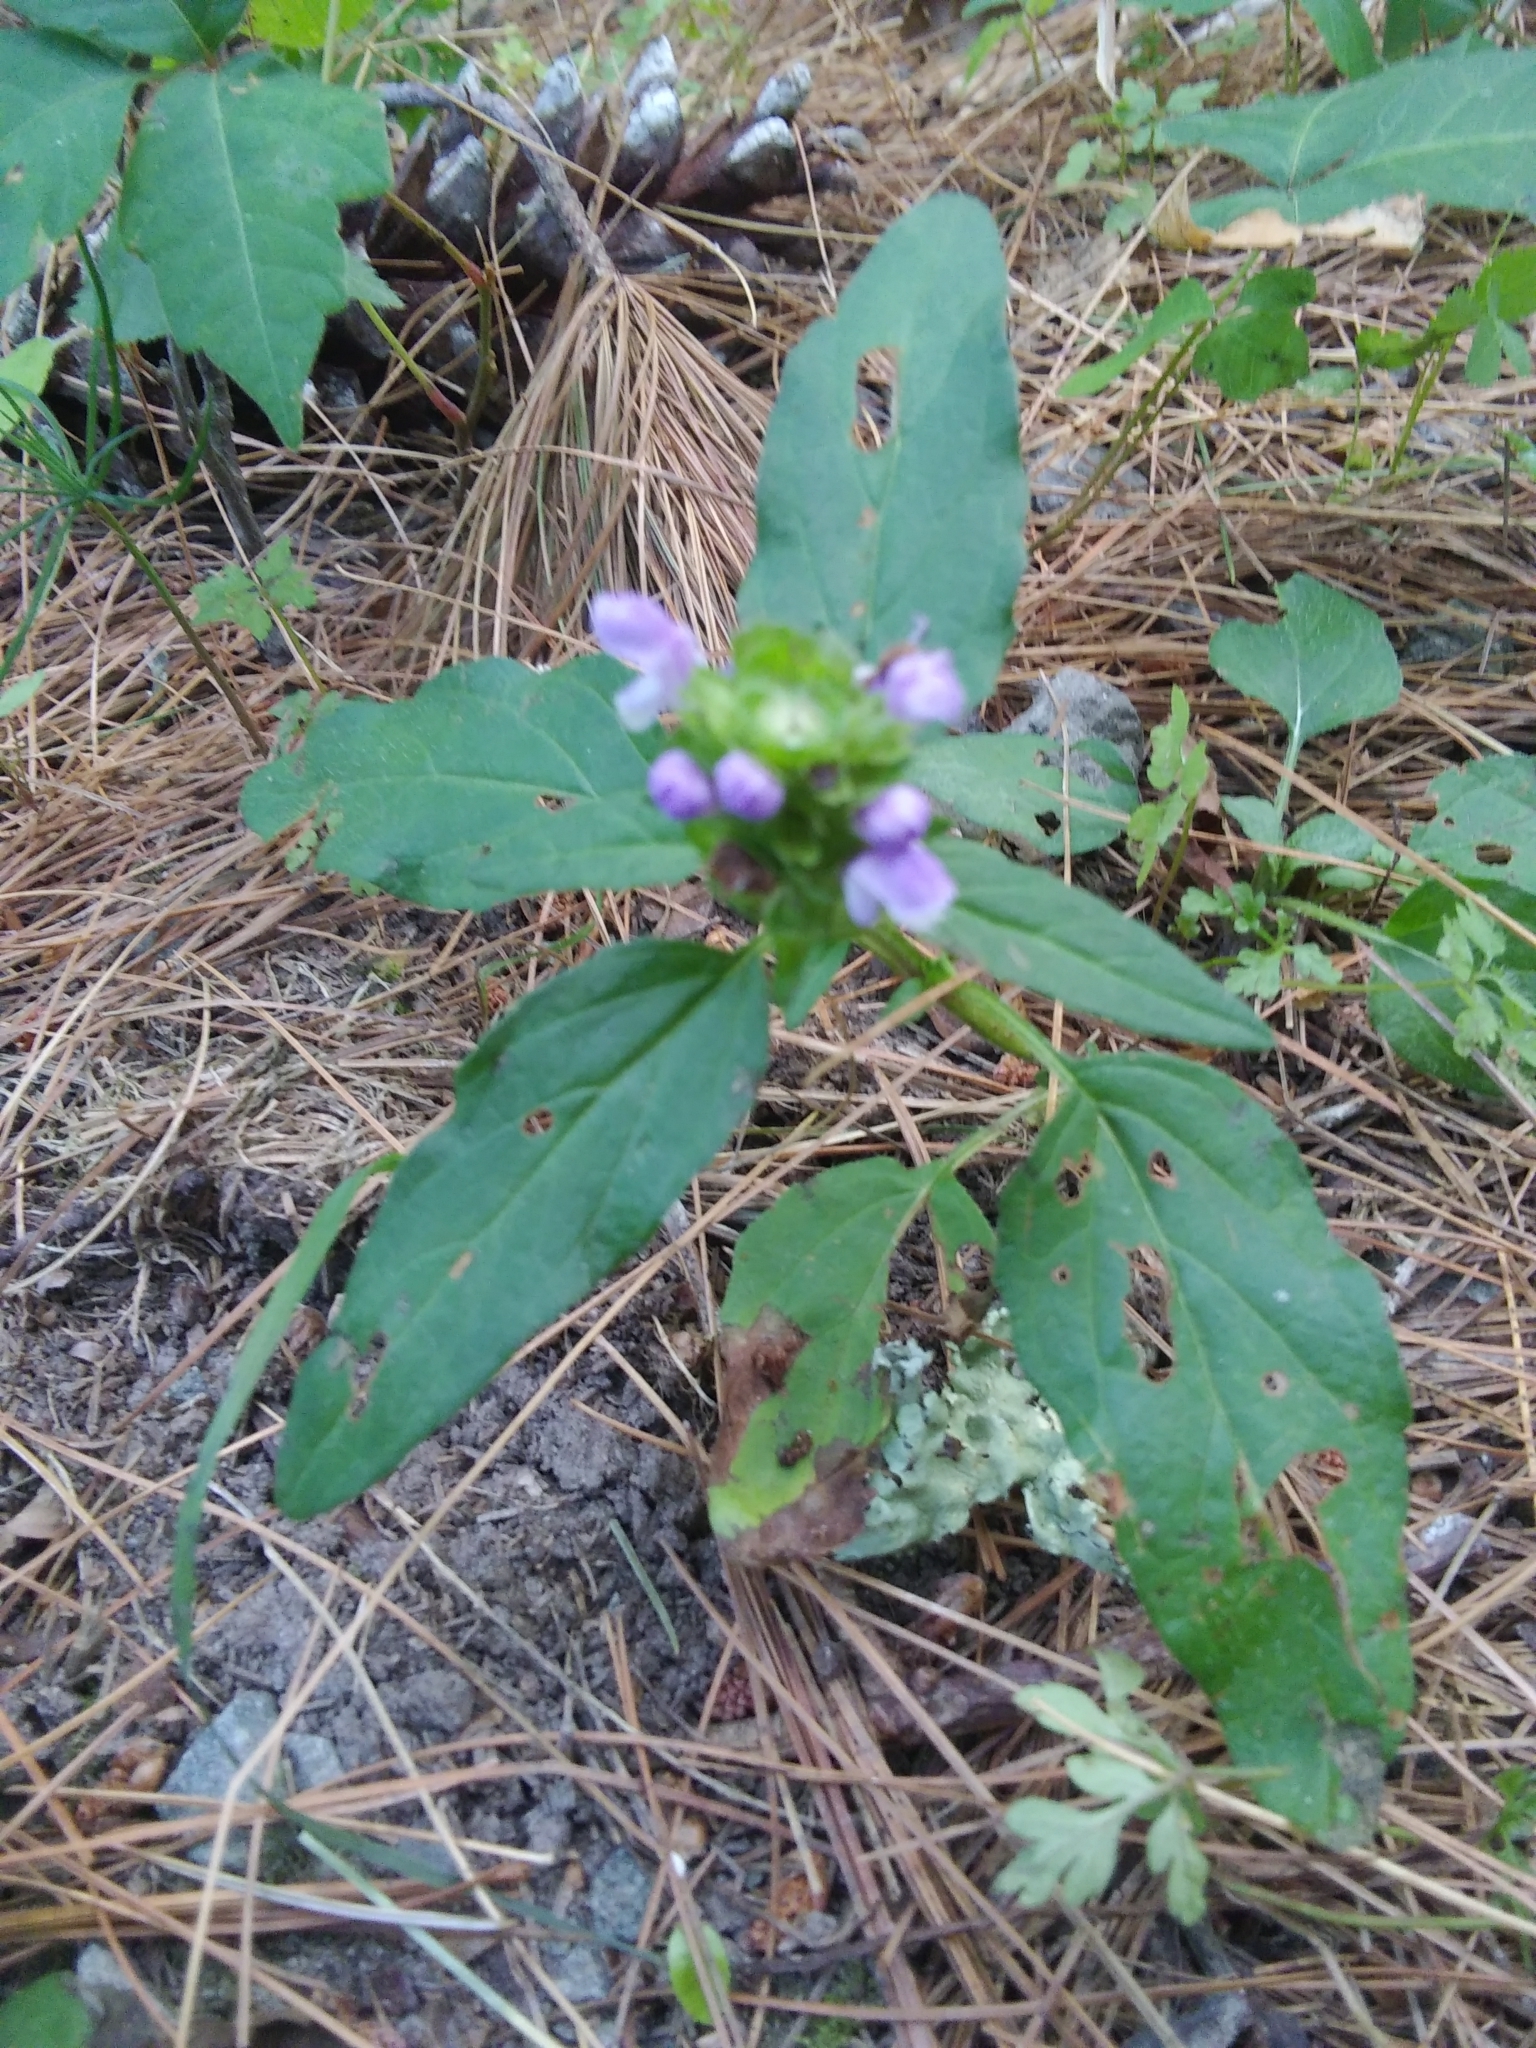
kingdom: Plantae
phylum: Tracheophyta
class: Magnoliopsida
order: Lamiales
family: Lamiaceae
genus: Prunella
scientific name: Prunella vulgaris
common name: Heal-all
